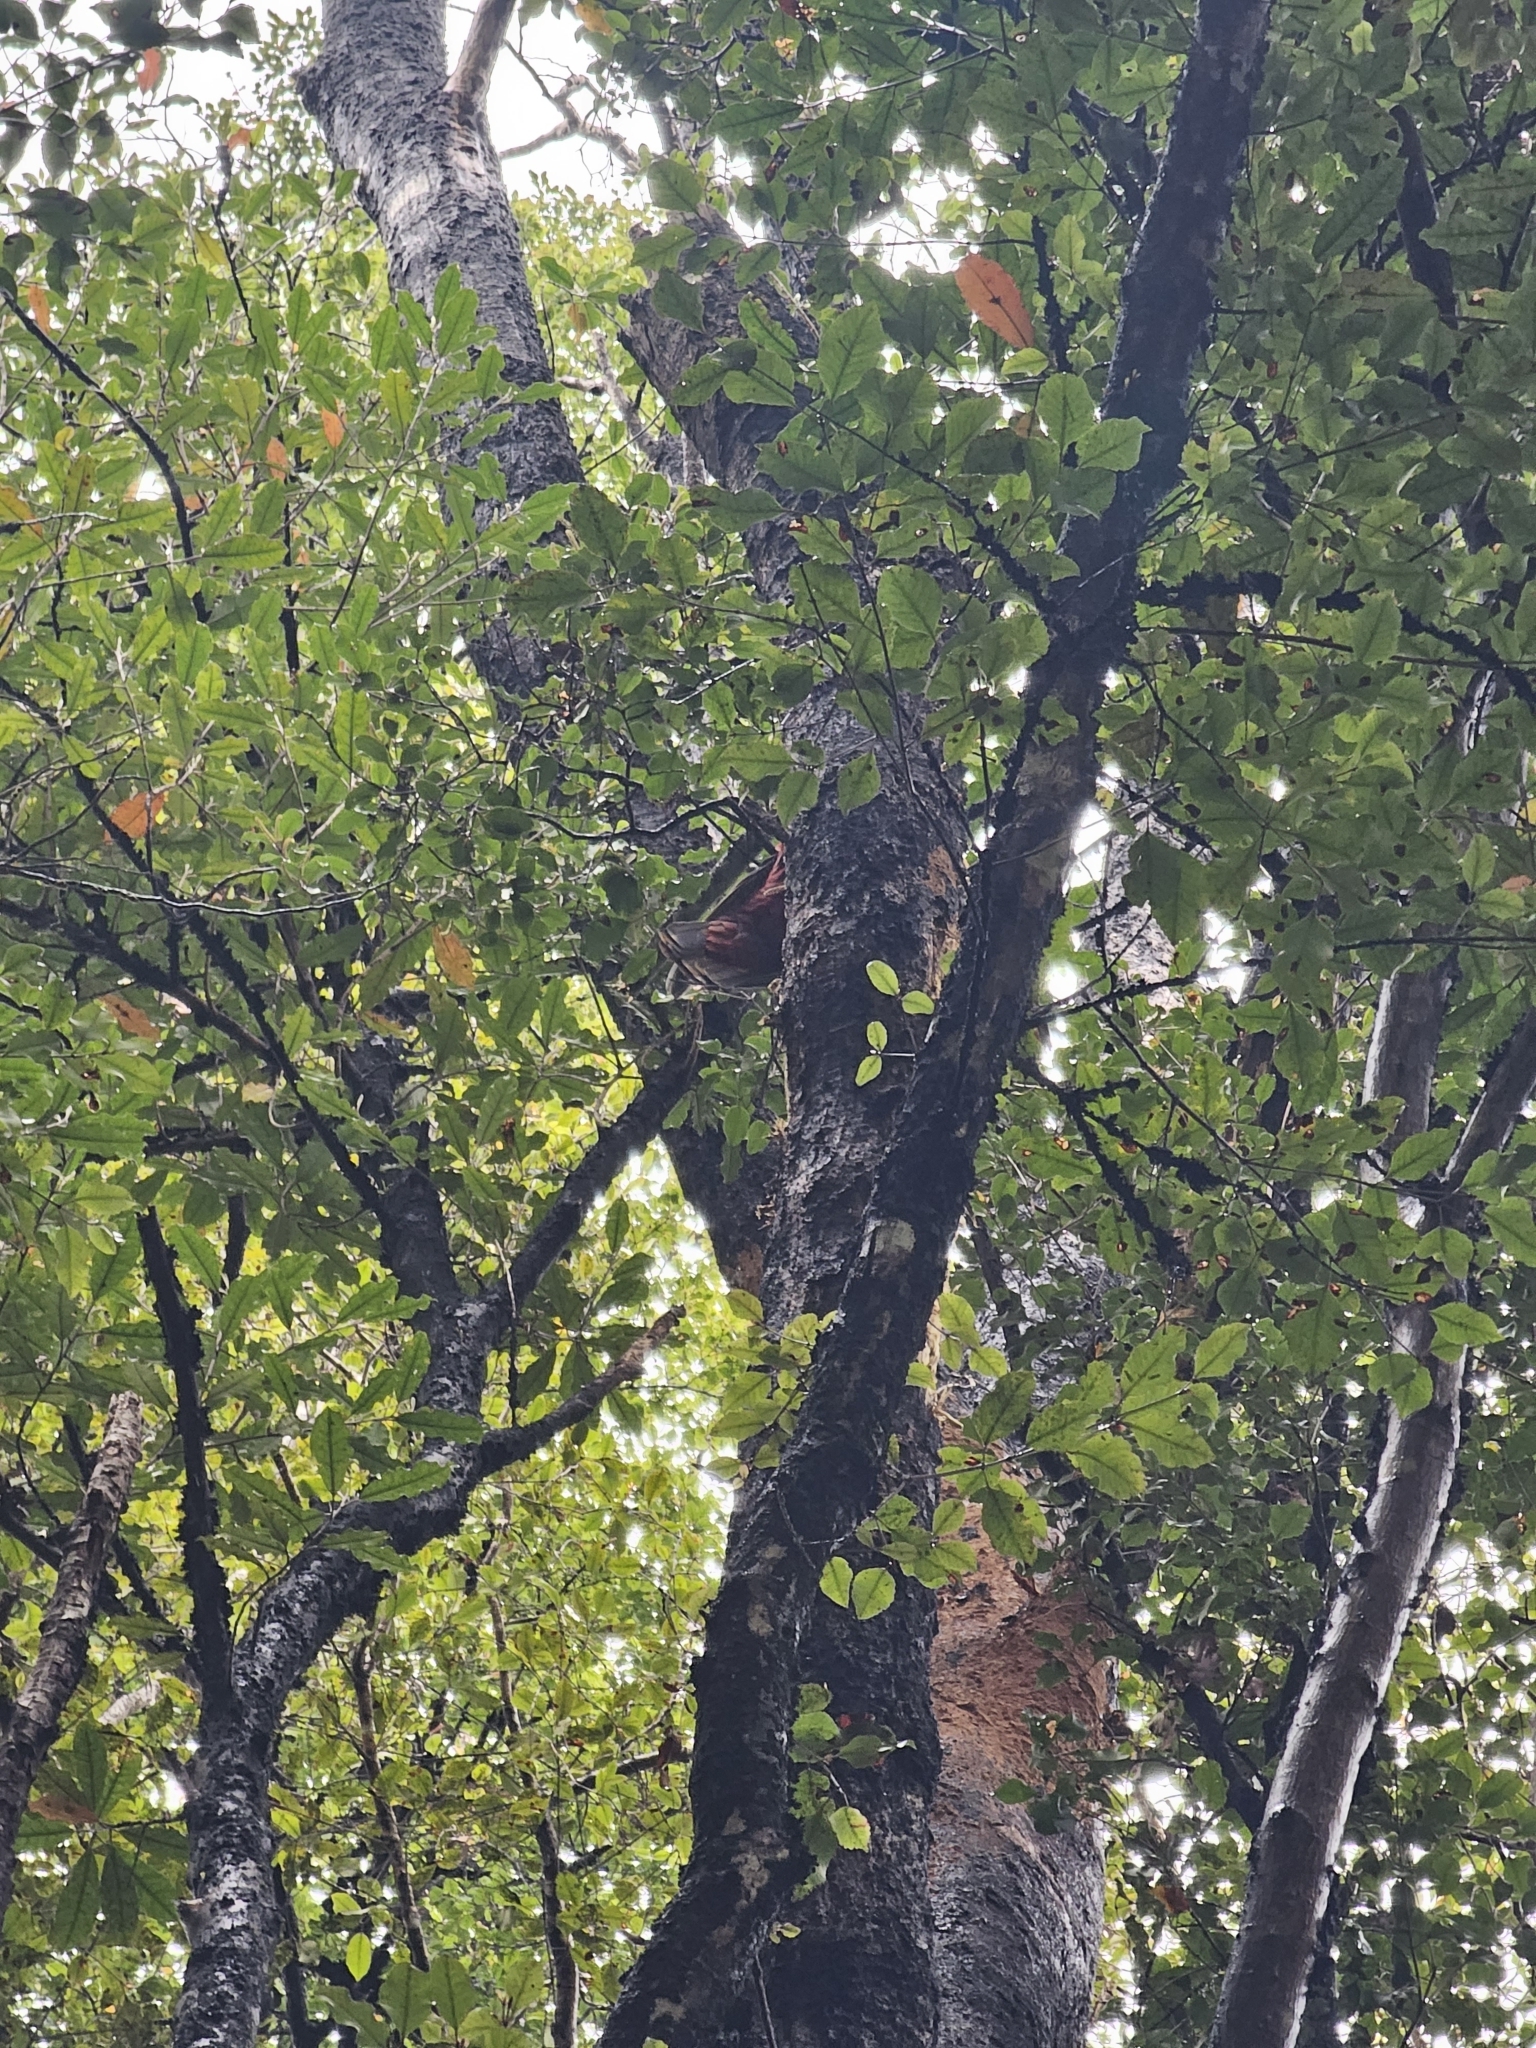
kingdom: Animalia
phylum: Chordata
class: Aves
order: Psittaciformes
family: Psittacidae
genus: Nestor
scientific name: Nestor meridionalis
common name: New zealand kaka
